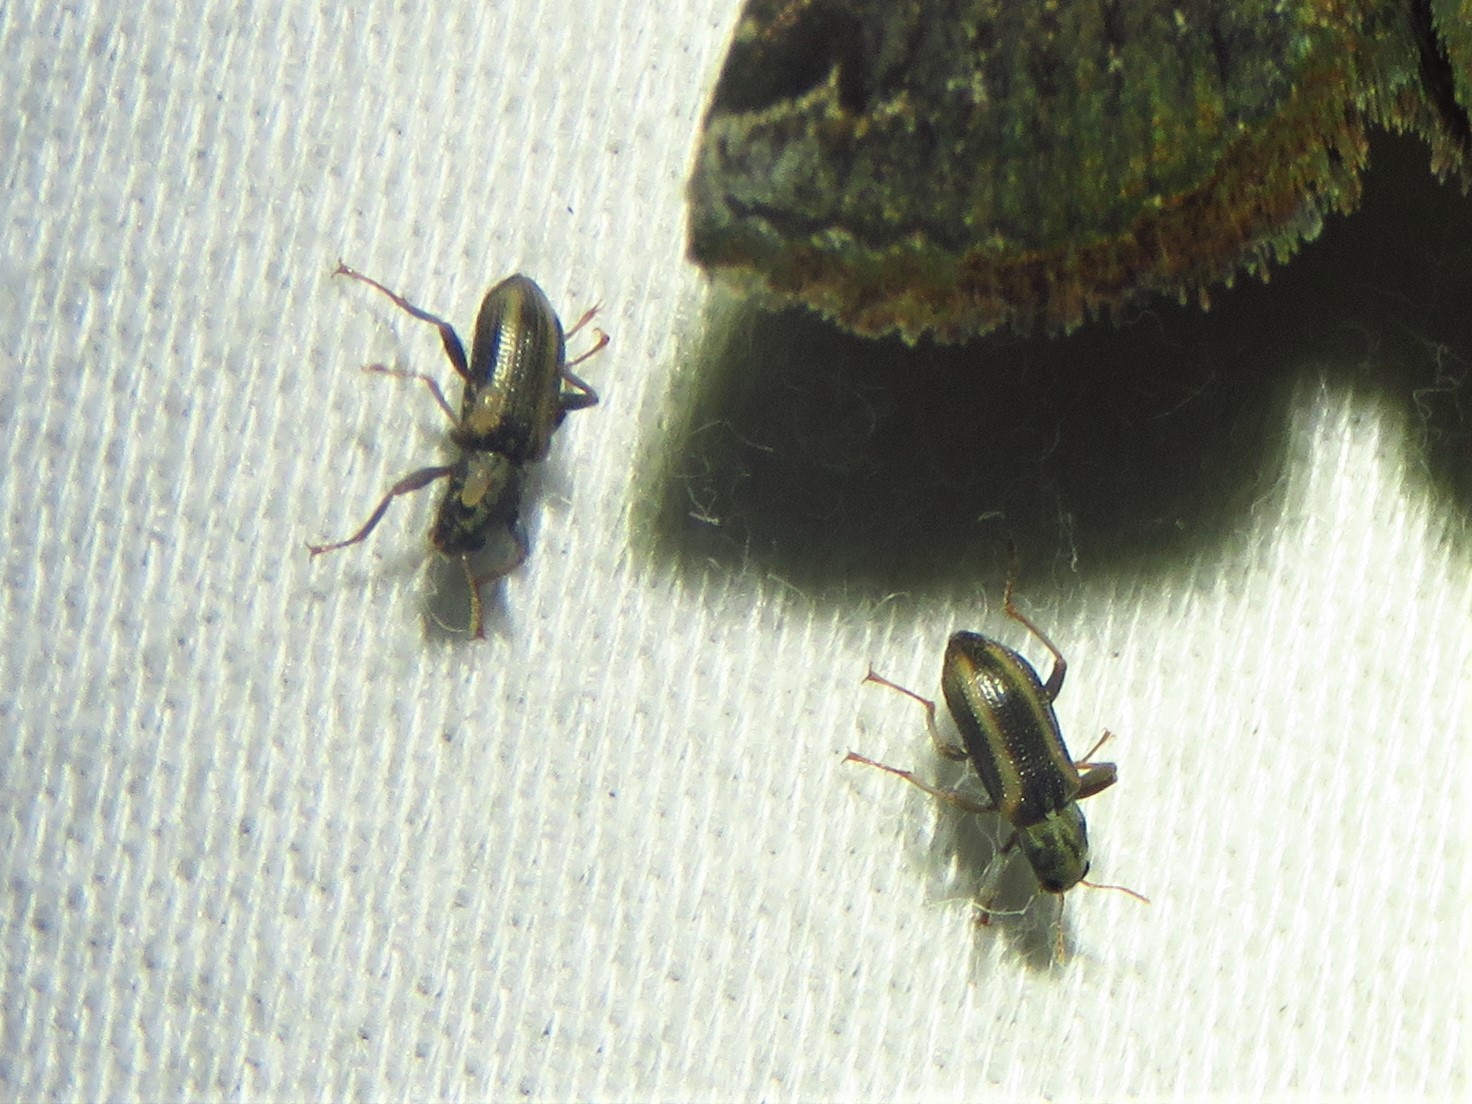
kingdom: Animalia
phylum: Arthropoda
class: Insecta
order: Coleoptera
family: Elmidae
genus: Stenelmis
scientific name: Stenelmis cheryl
